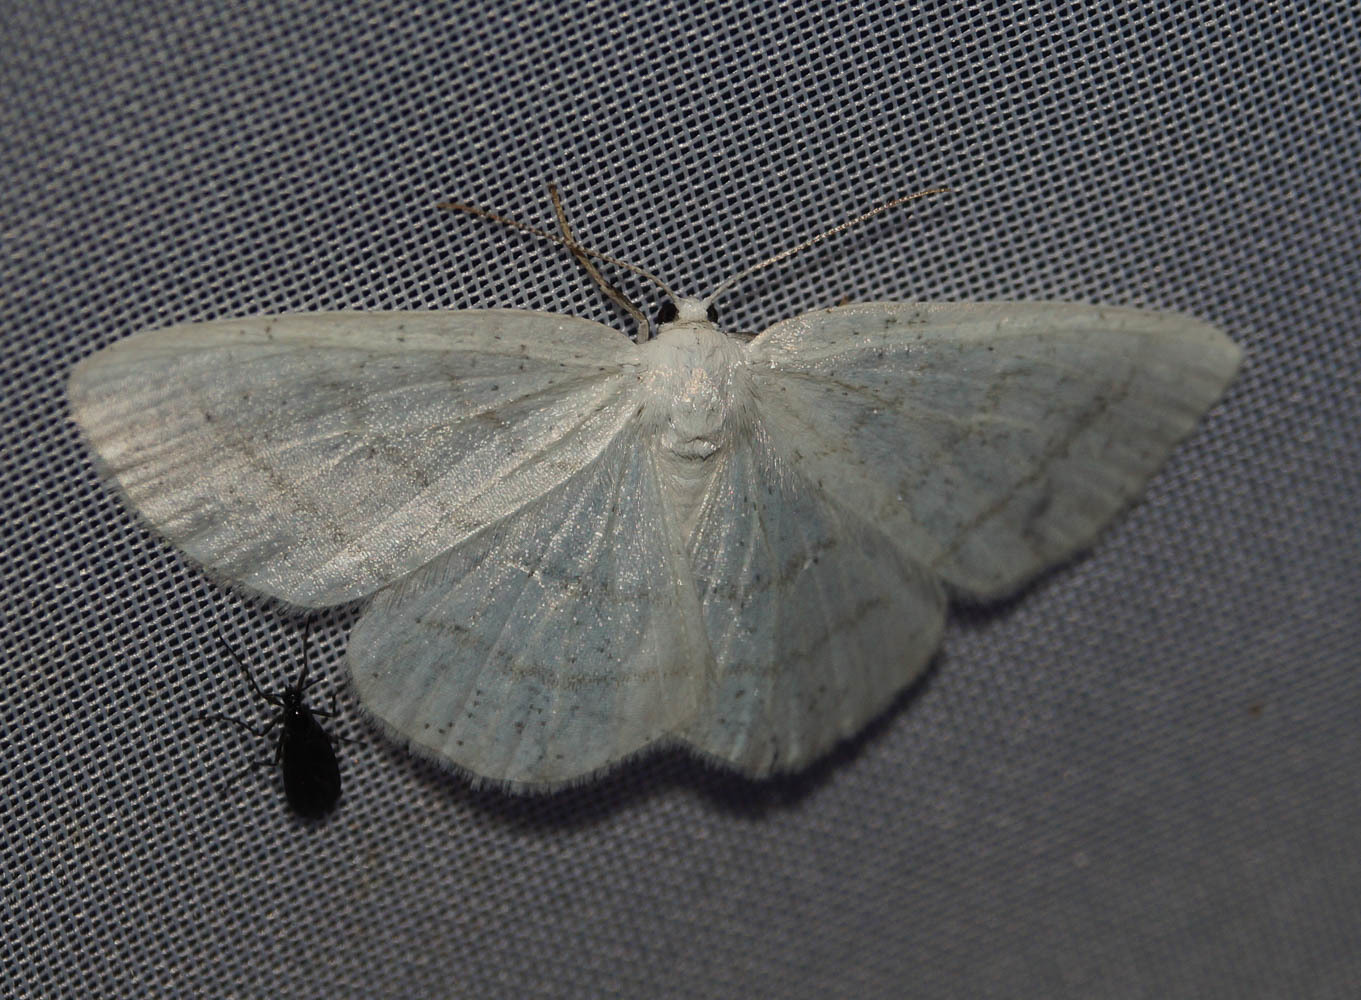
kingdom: Animalia
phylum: Arthropoda
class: Insecta
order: Lepidoptera
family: Geometridae
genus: Cabera
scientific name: Cabera pusaria
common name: Common white wave
